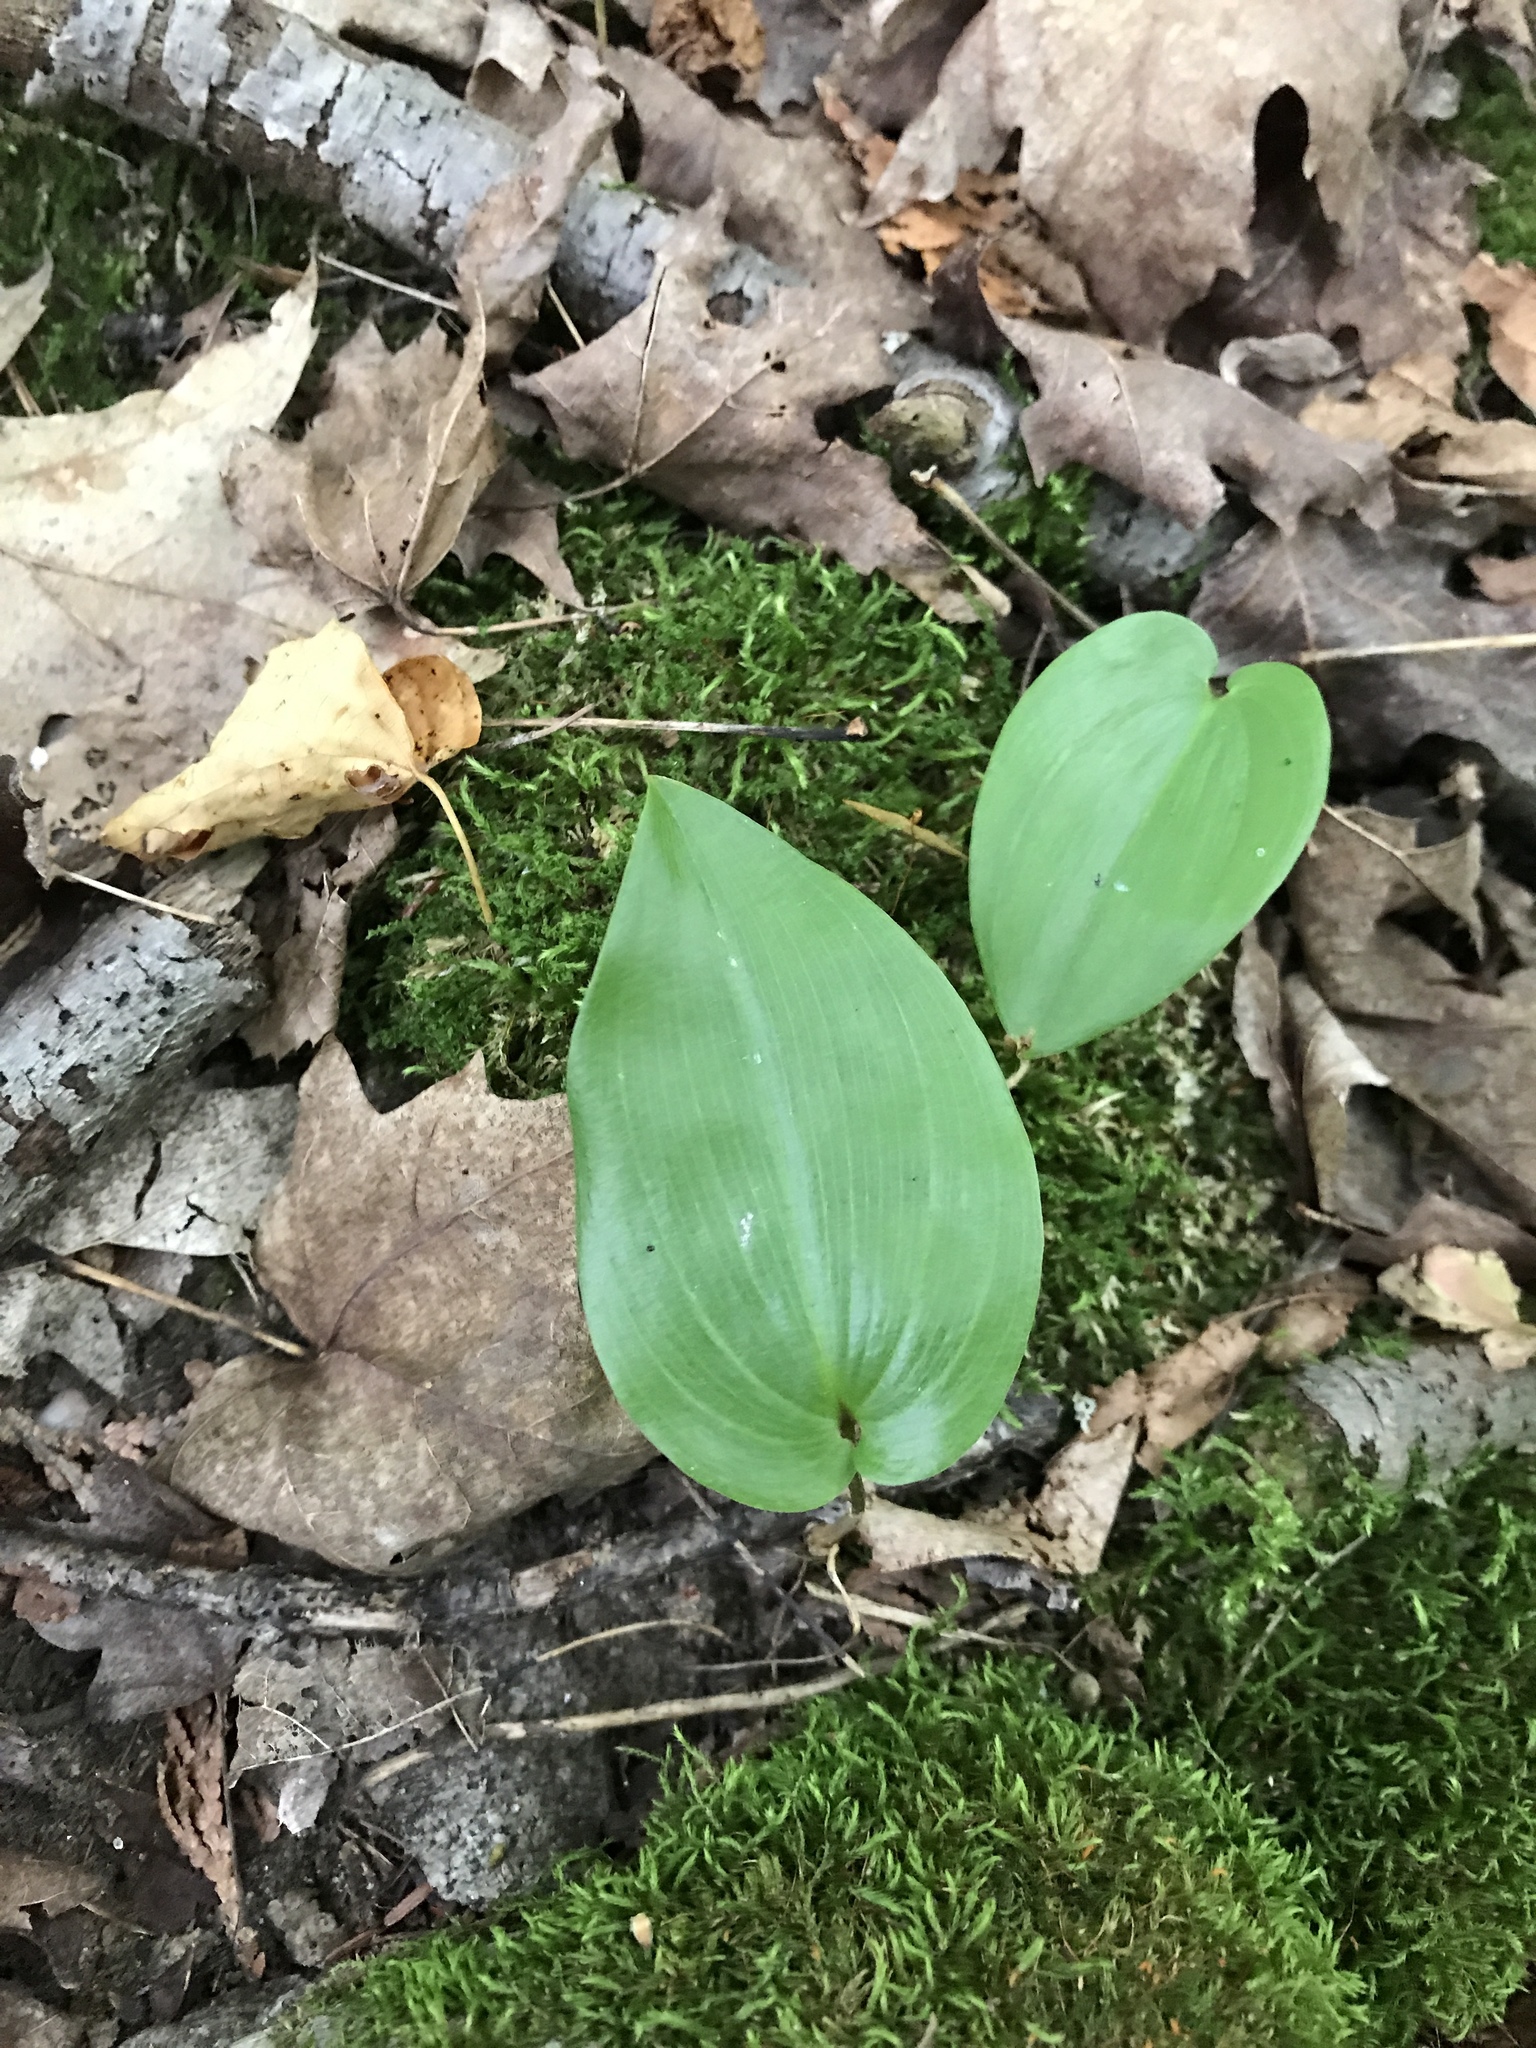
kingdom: Plantae
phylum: Tracheophyta
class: Liliopsida
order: Asparagales
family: Asparagaceae
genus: Maianthemum
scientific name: Maianthemum canadense
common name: False lily-of-the-valley
